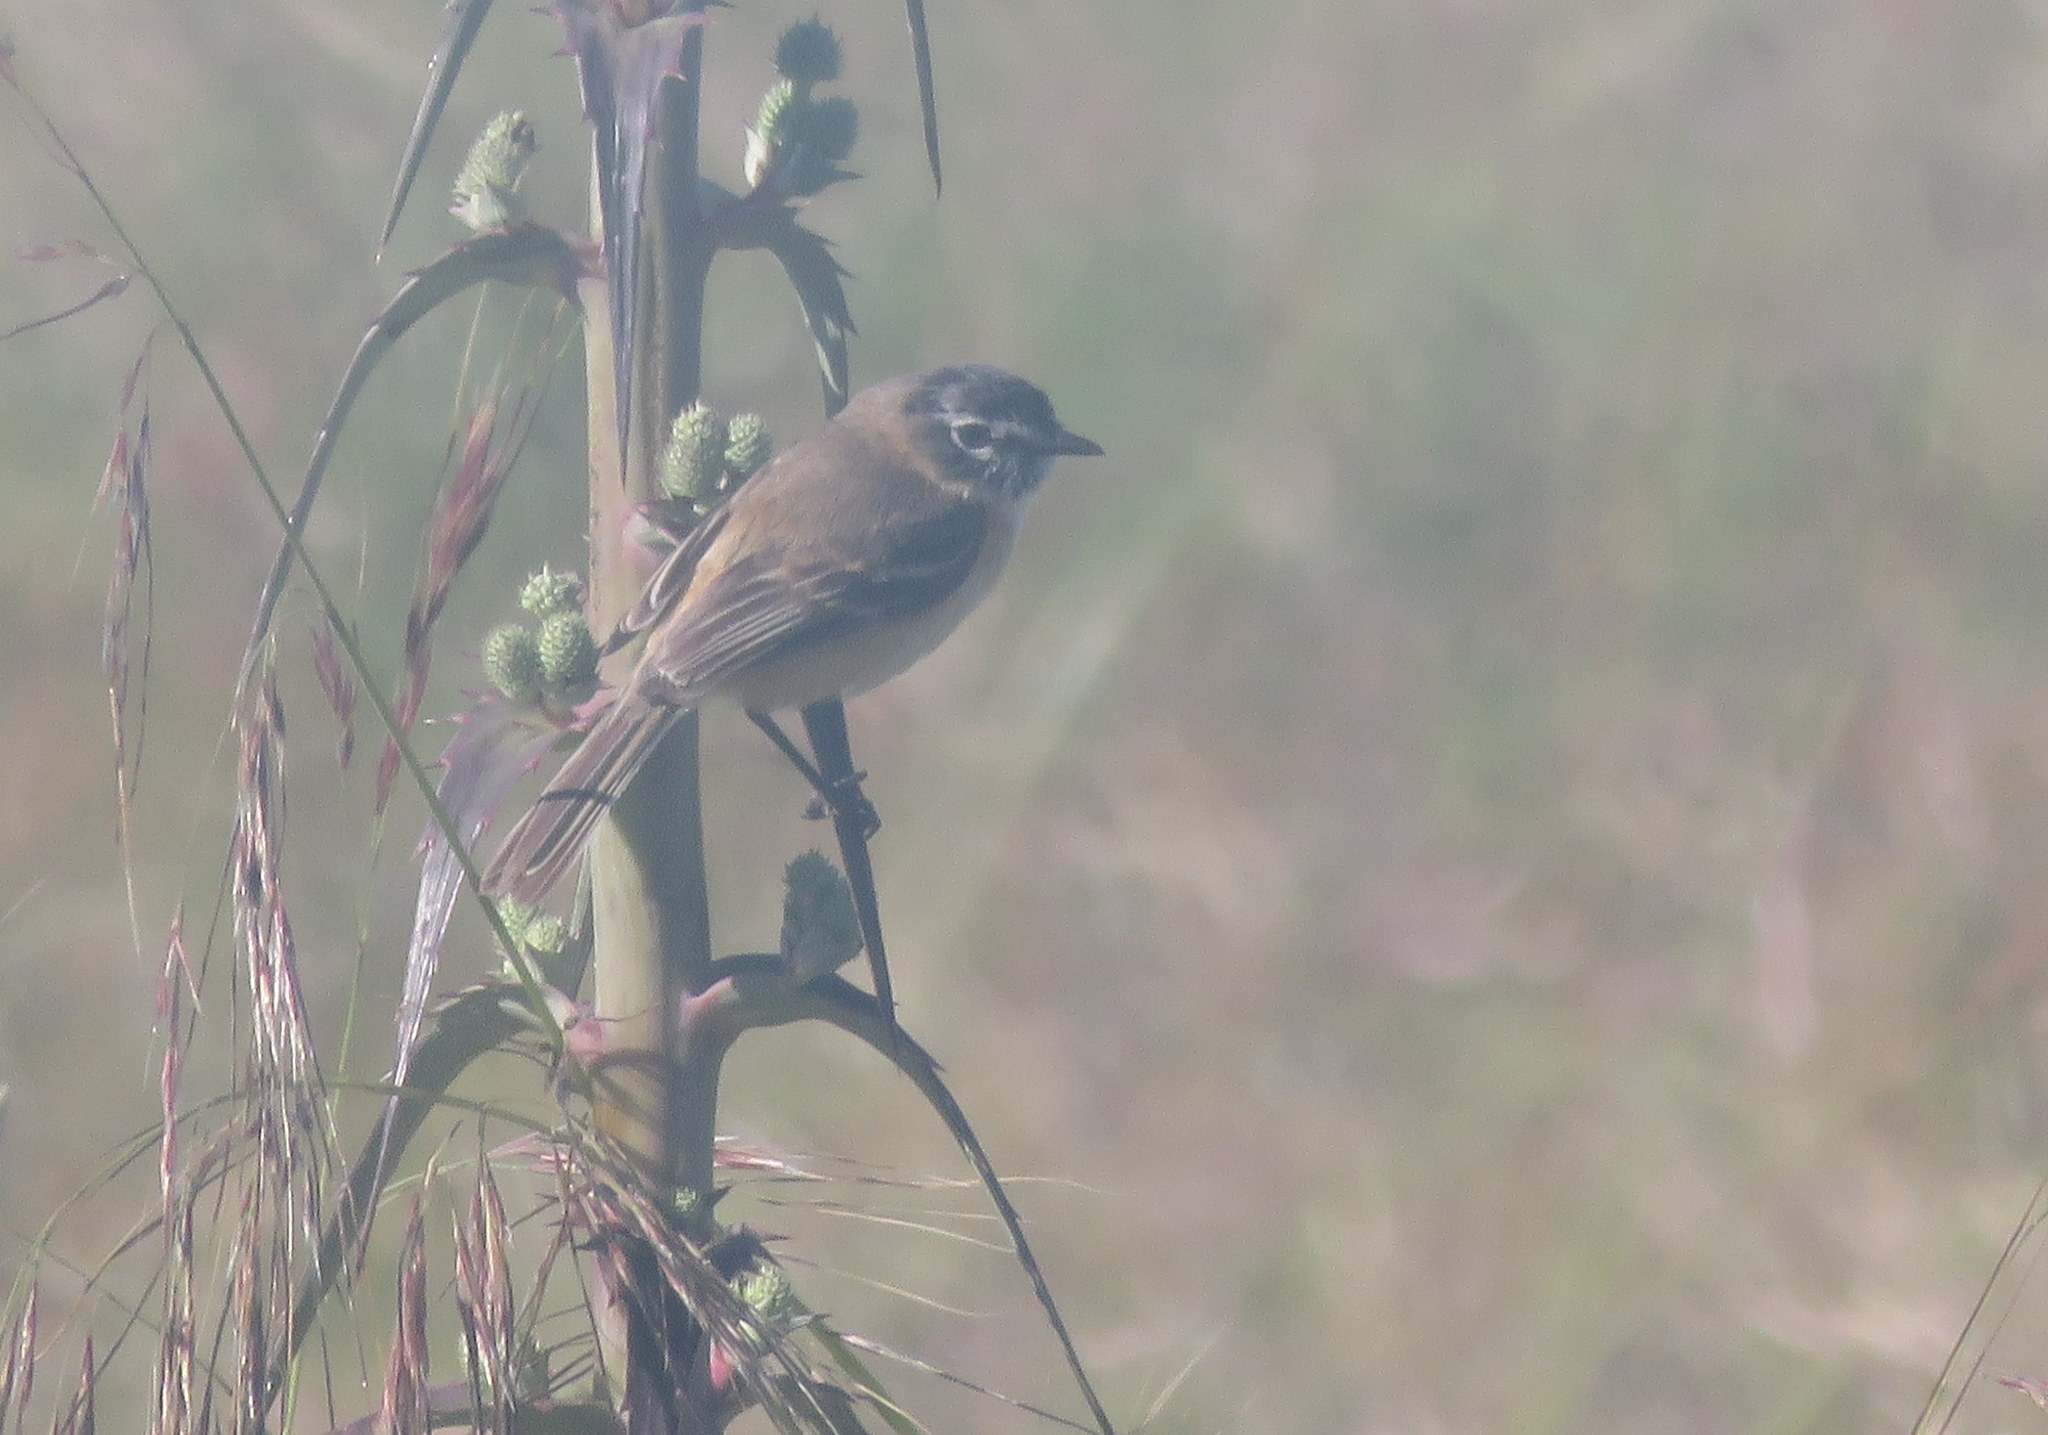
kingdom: Animalia
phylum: Chordata
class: Aves
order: Passeriformes
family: Tyrannidae
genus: Polystictus
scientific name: Polystictus pectoralis
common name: Bearded tachuri
